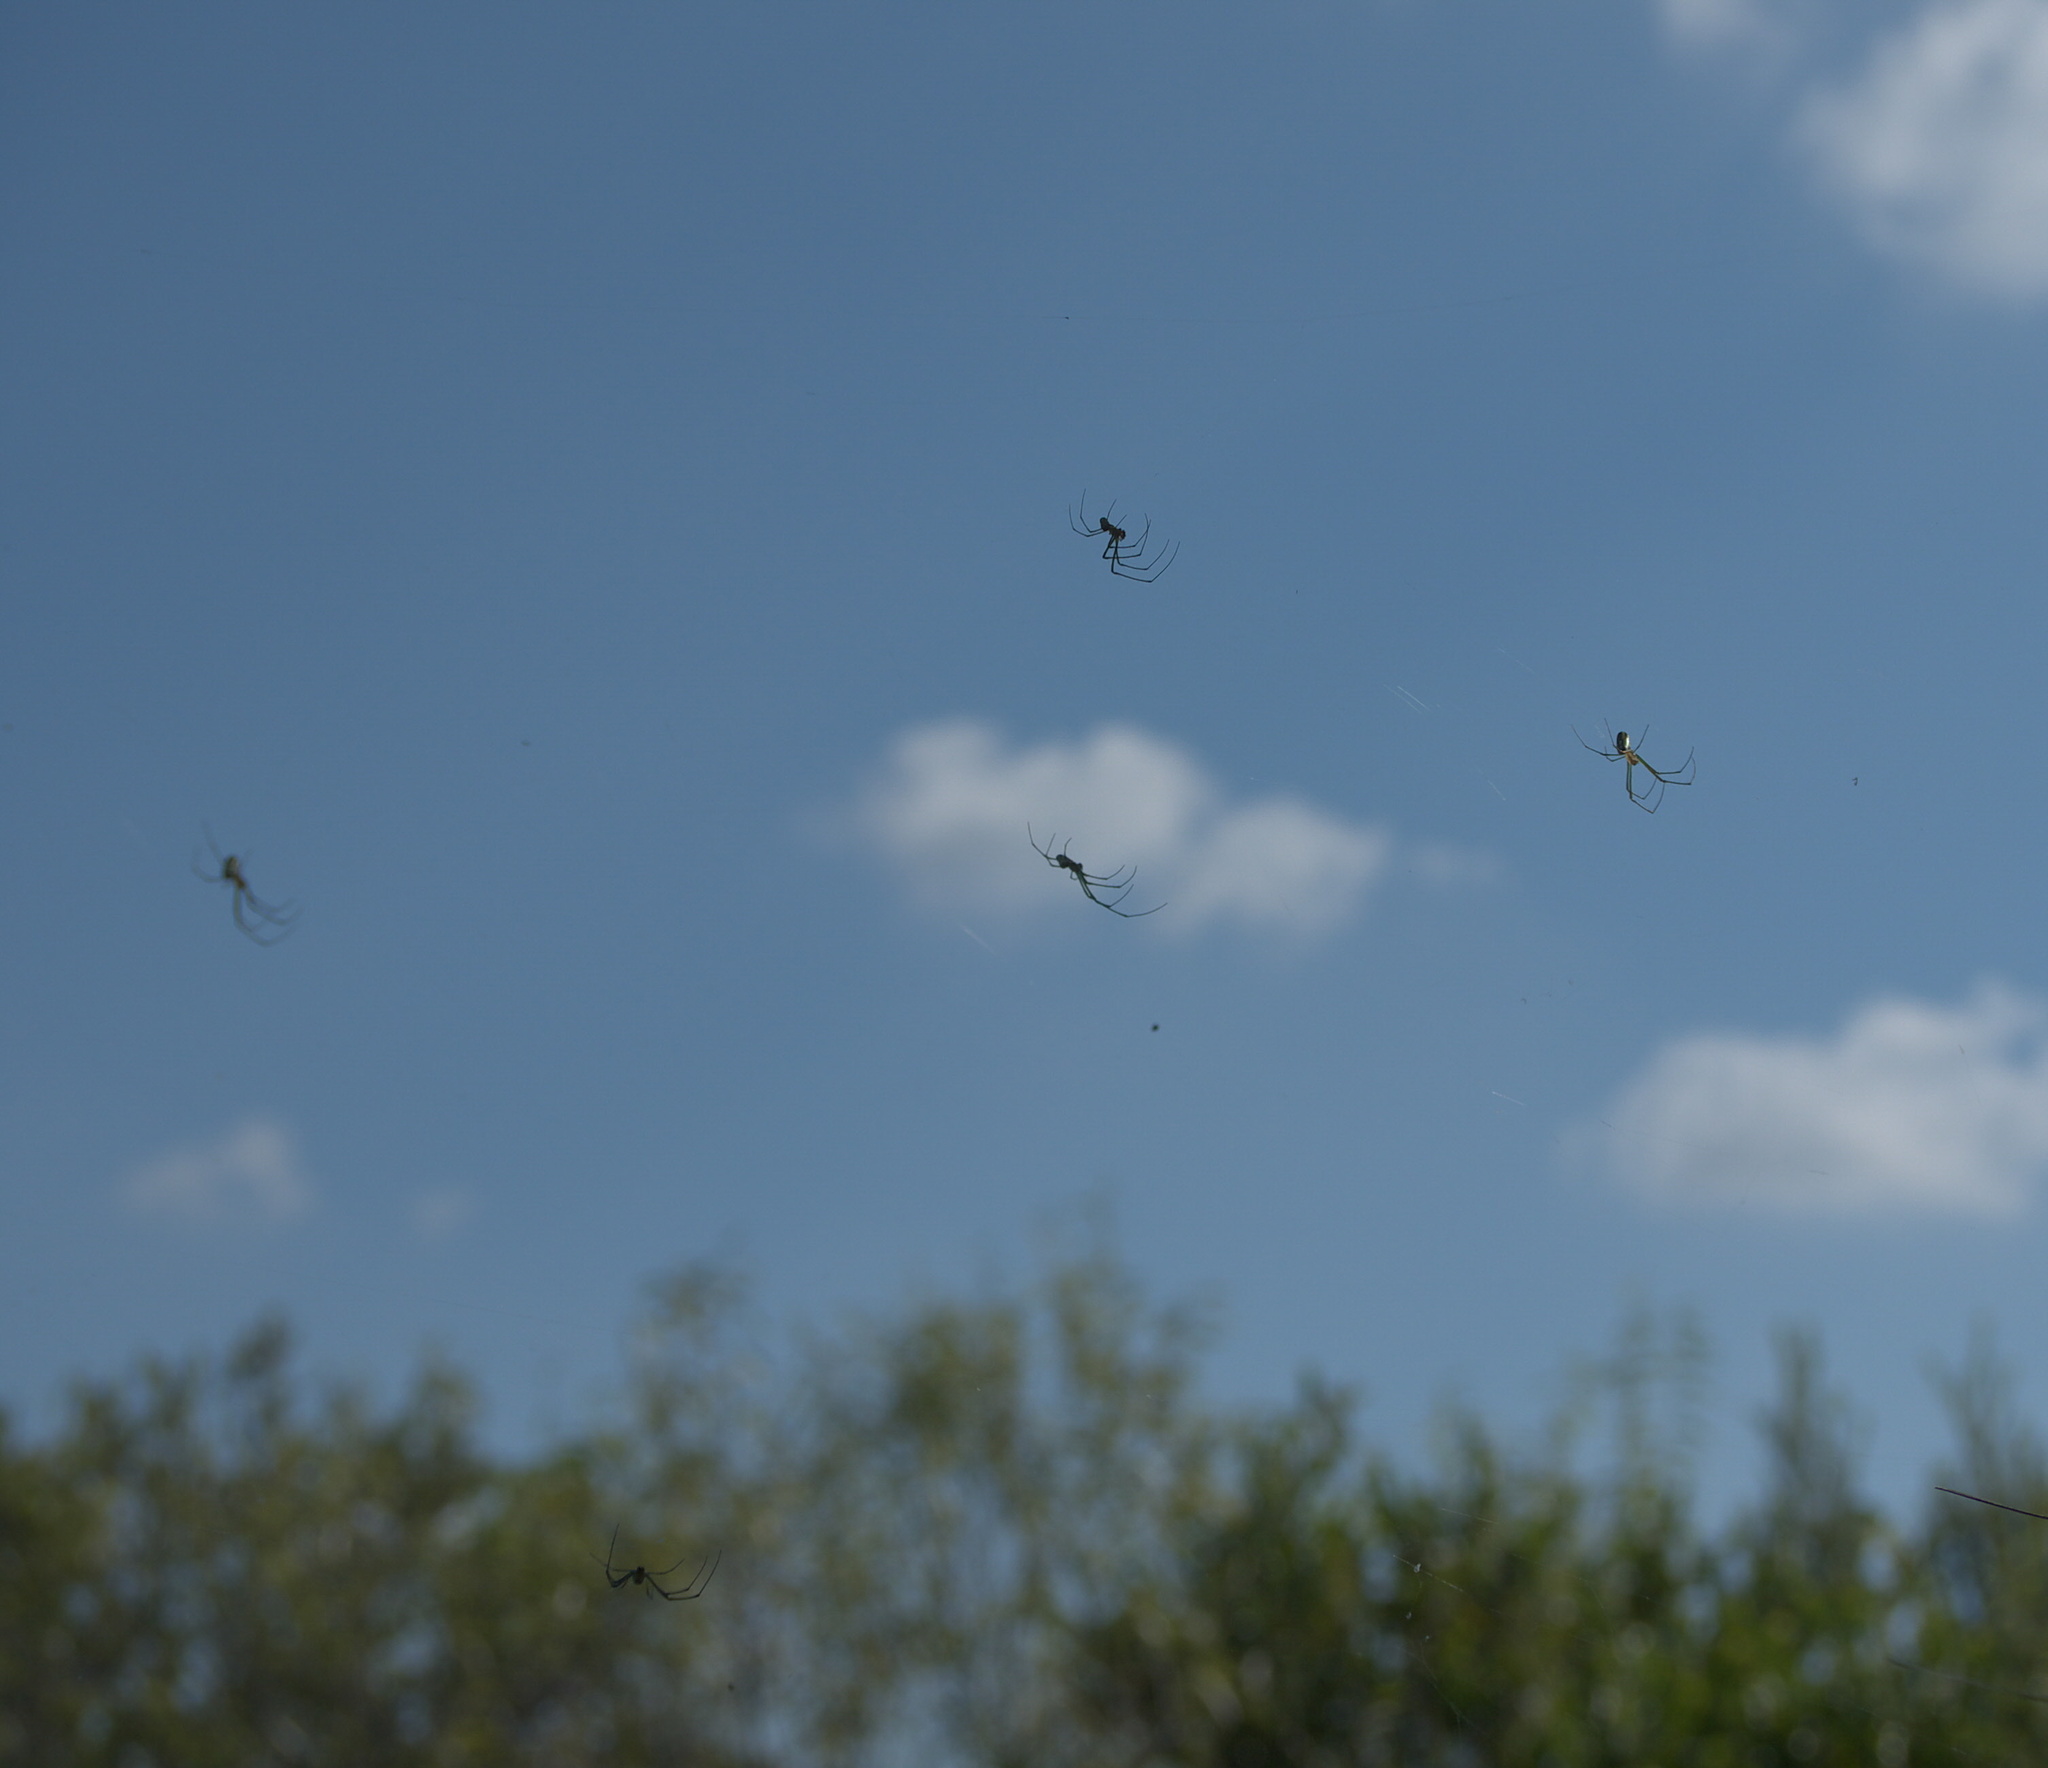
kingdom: Animalia
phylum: Arthropoda
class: Arachnida
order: Araneae
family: Tetragnathidae
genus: Leucauge
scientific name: Leucauge argyra
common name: Longjawed orb weavers
